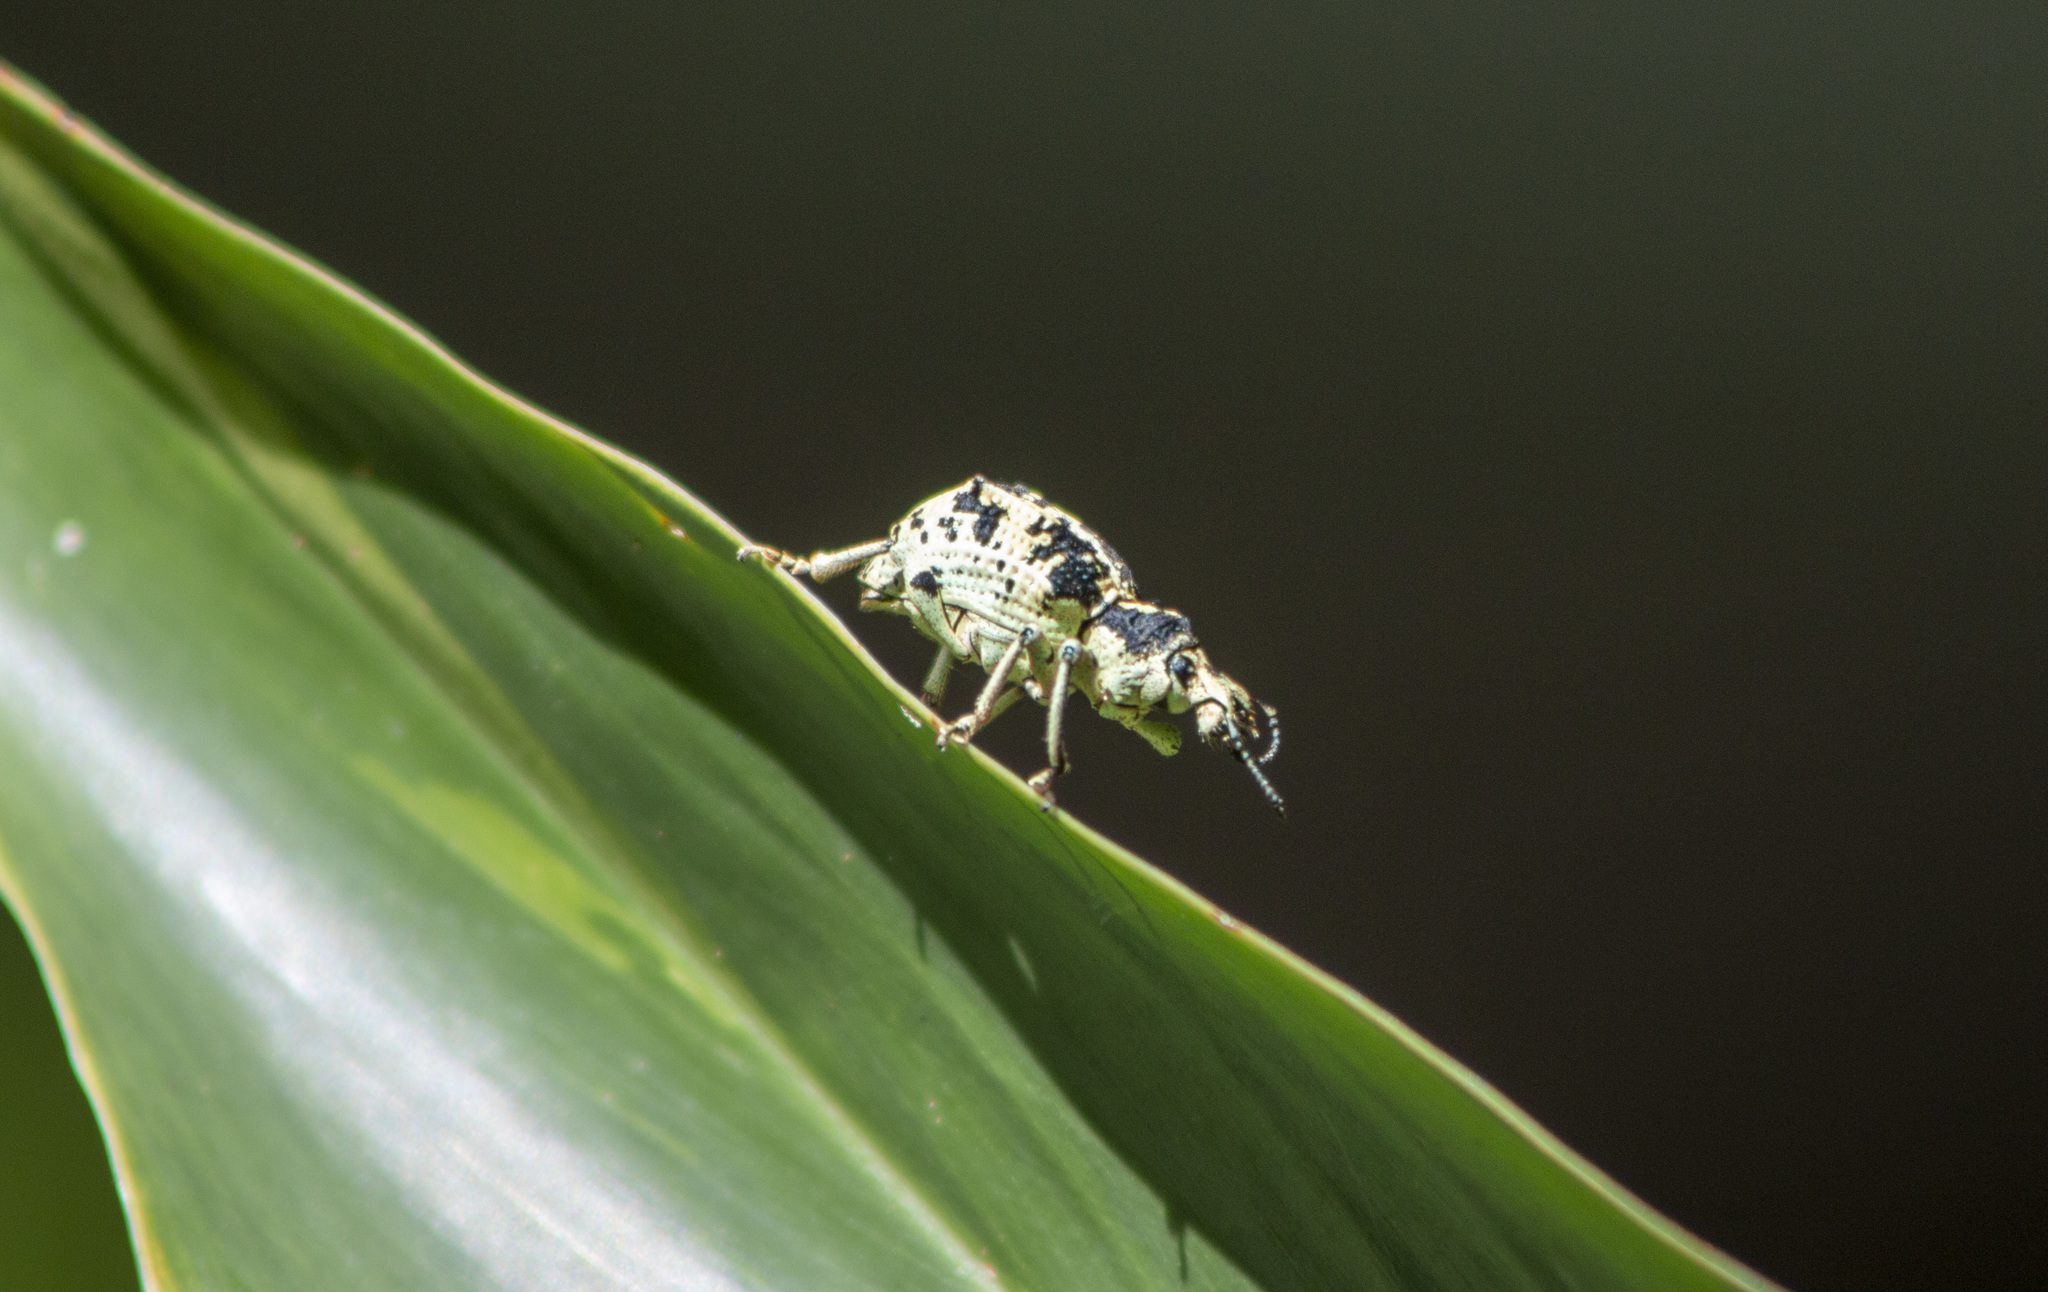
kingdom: Animalia
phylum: Arthropoda
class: Insecta
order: Coleoptera
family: Curculionidae
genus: Rhigus
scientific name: Rhigus dejeanii
